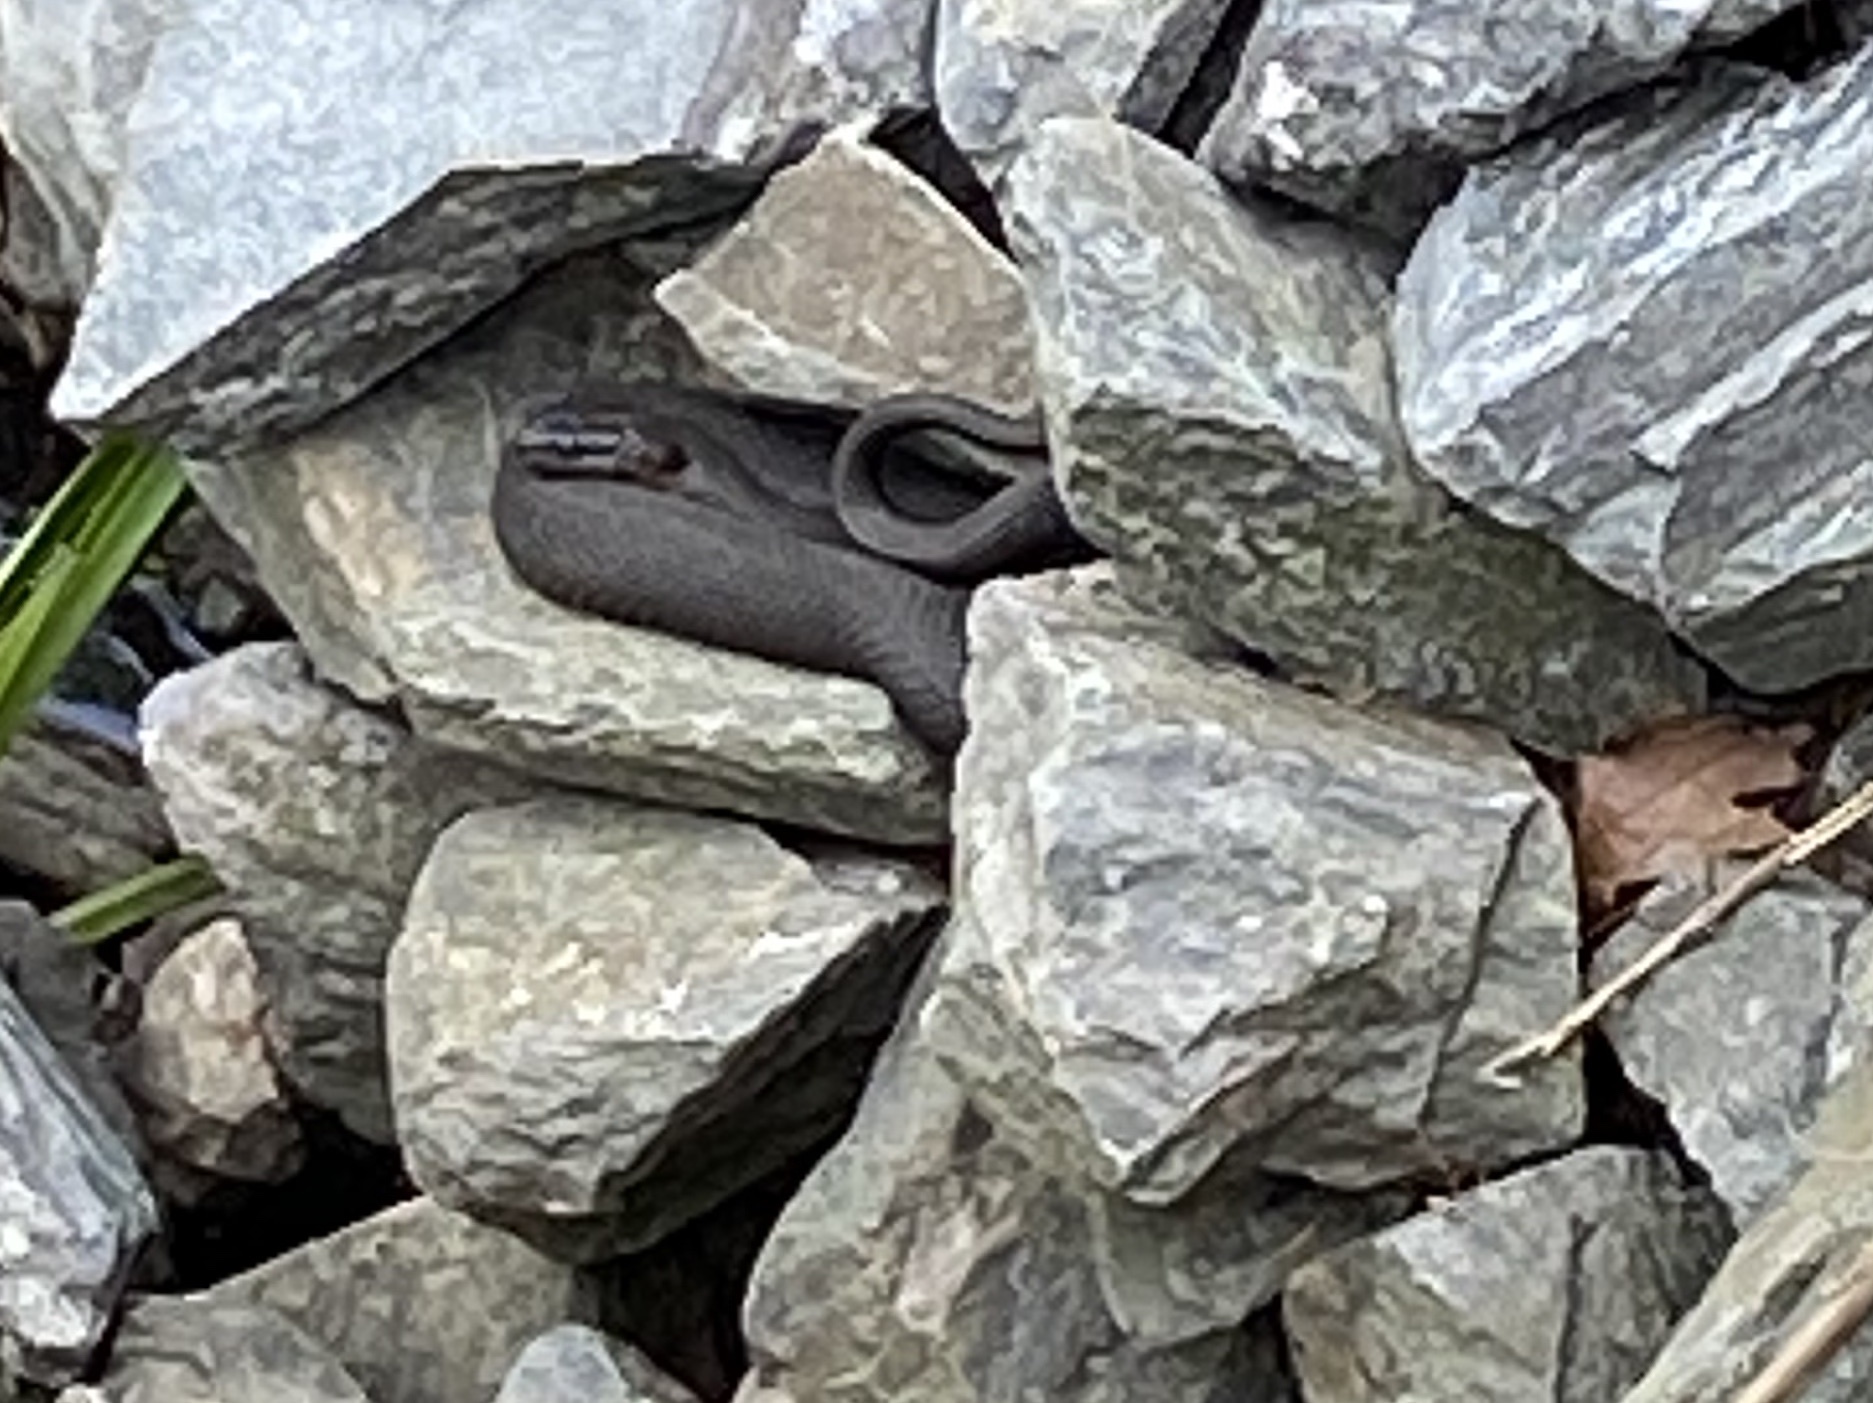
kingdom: Animalia
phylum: Chordata
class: Squamata
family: Colubridae
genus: Nerodia
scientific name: Nerodia sipedon
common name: Northern water snake
